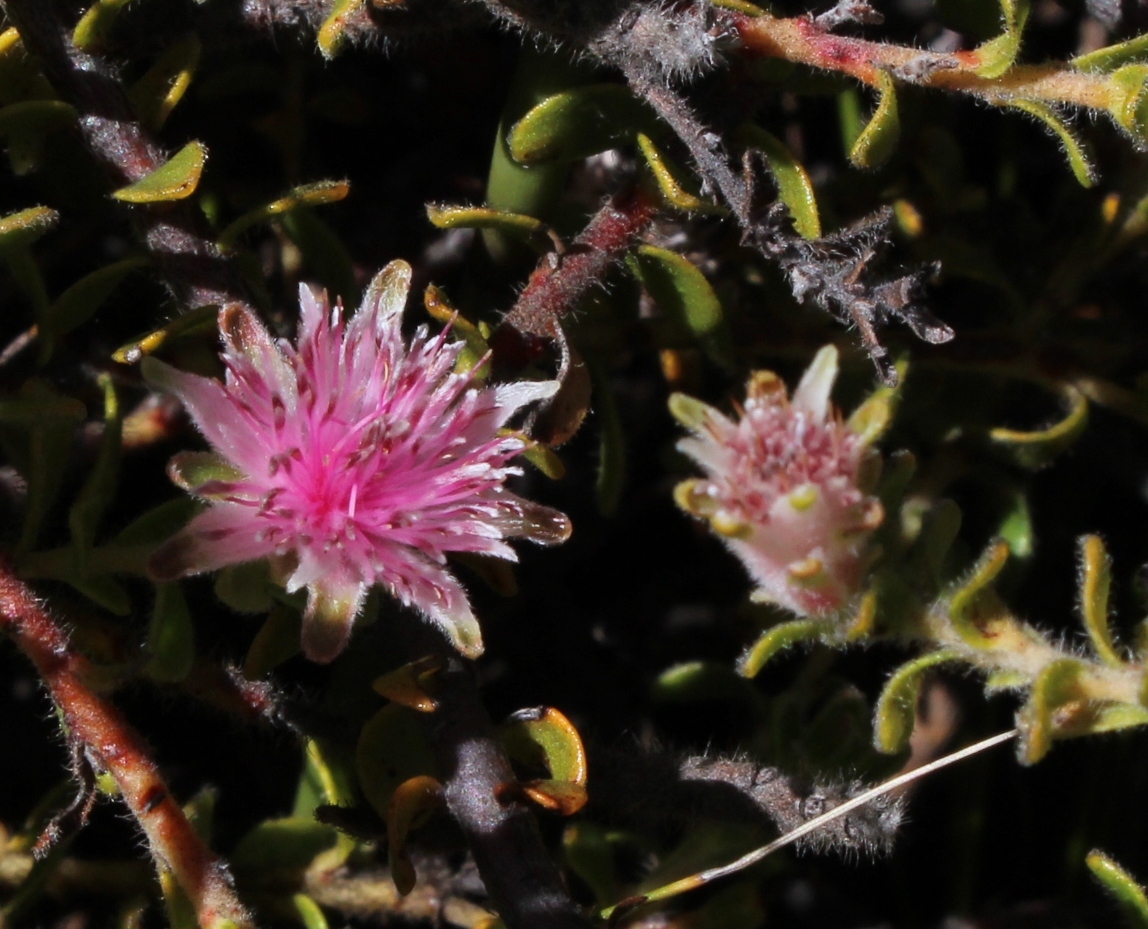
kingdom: Plantae
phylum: Tracheophyta
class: Magnoliopsida
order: Proteales
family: Proteaceae
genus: Diastella
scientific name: Diastella divaricata
